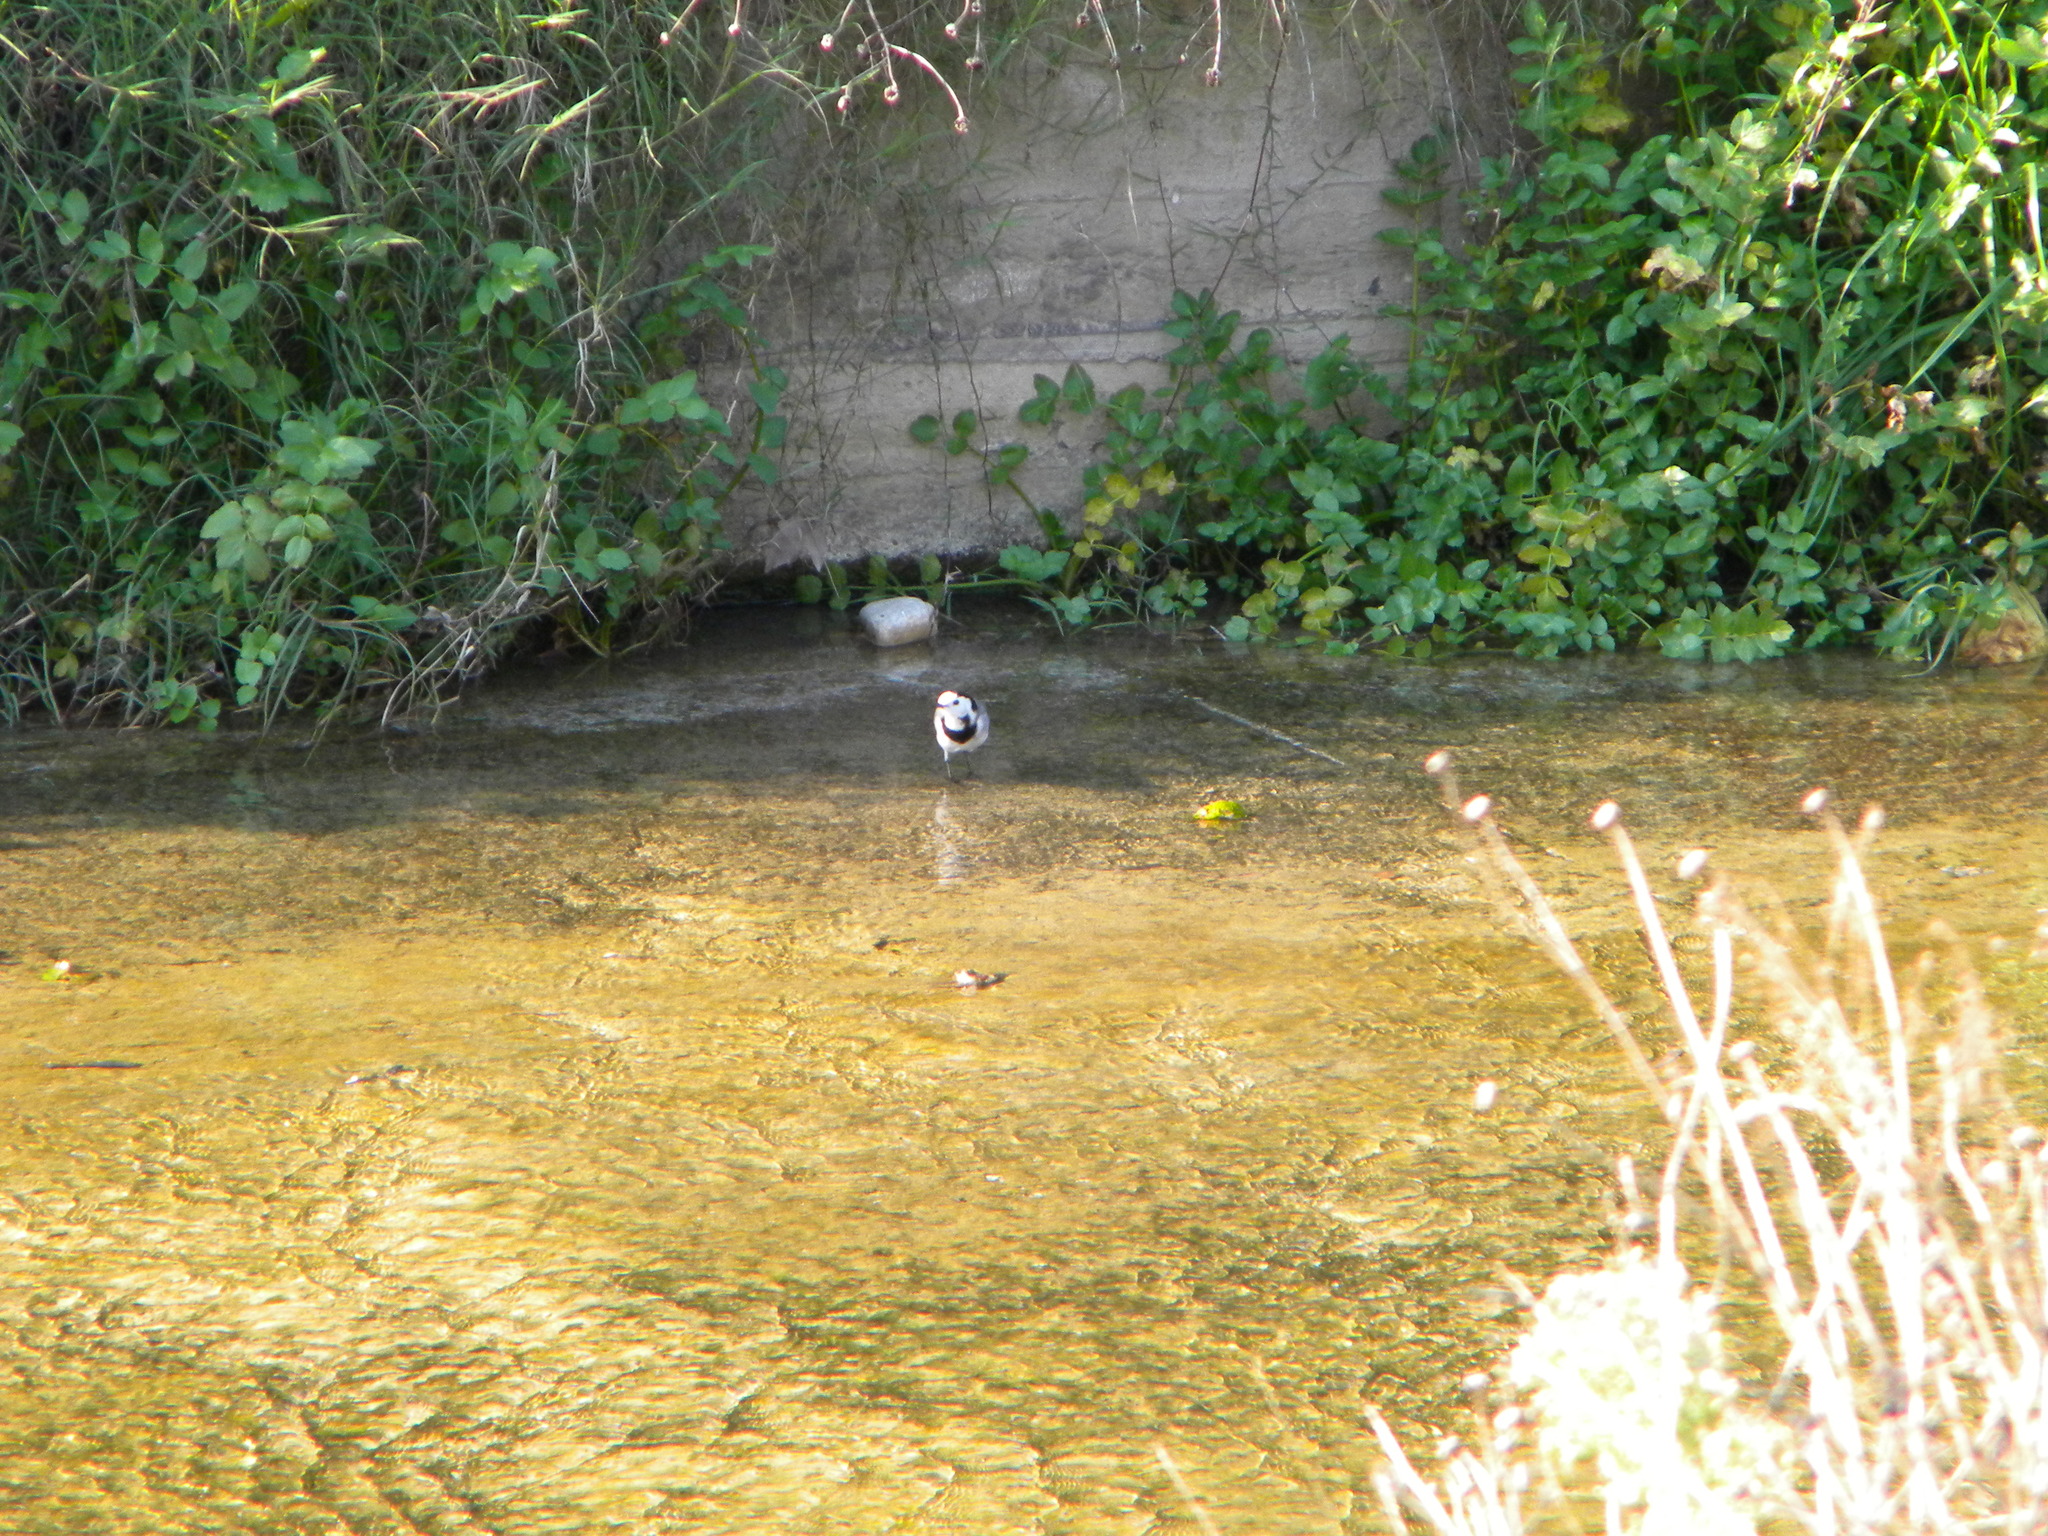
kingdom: Animalia
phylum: Chordata
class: Aves
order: Passeriformes
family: Motacillidae
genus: Motacilla
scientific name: Motacilla alba
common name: White wagtail
